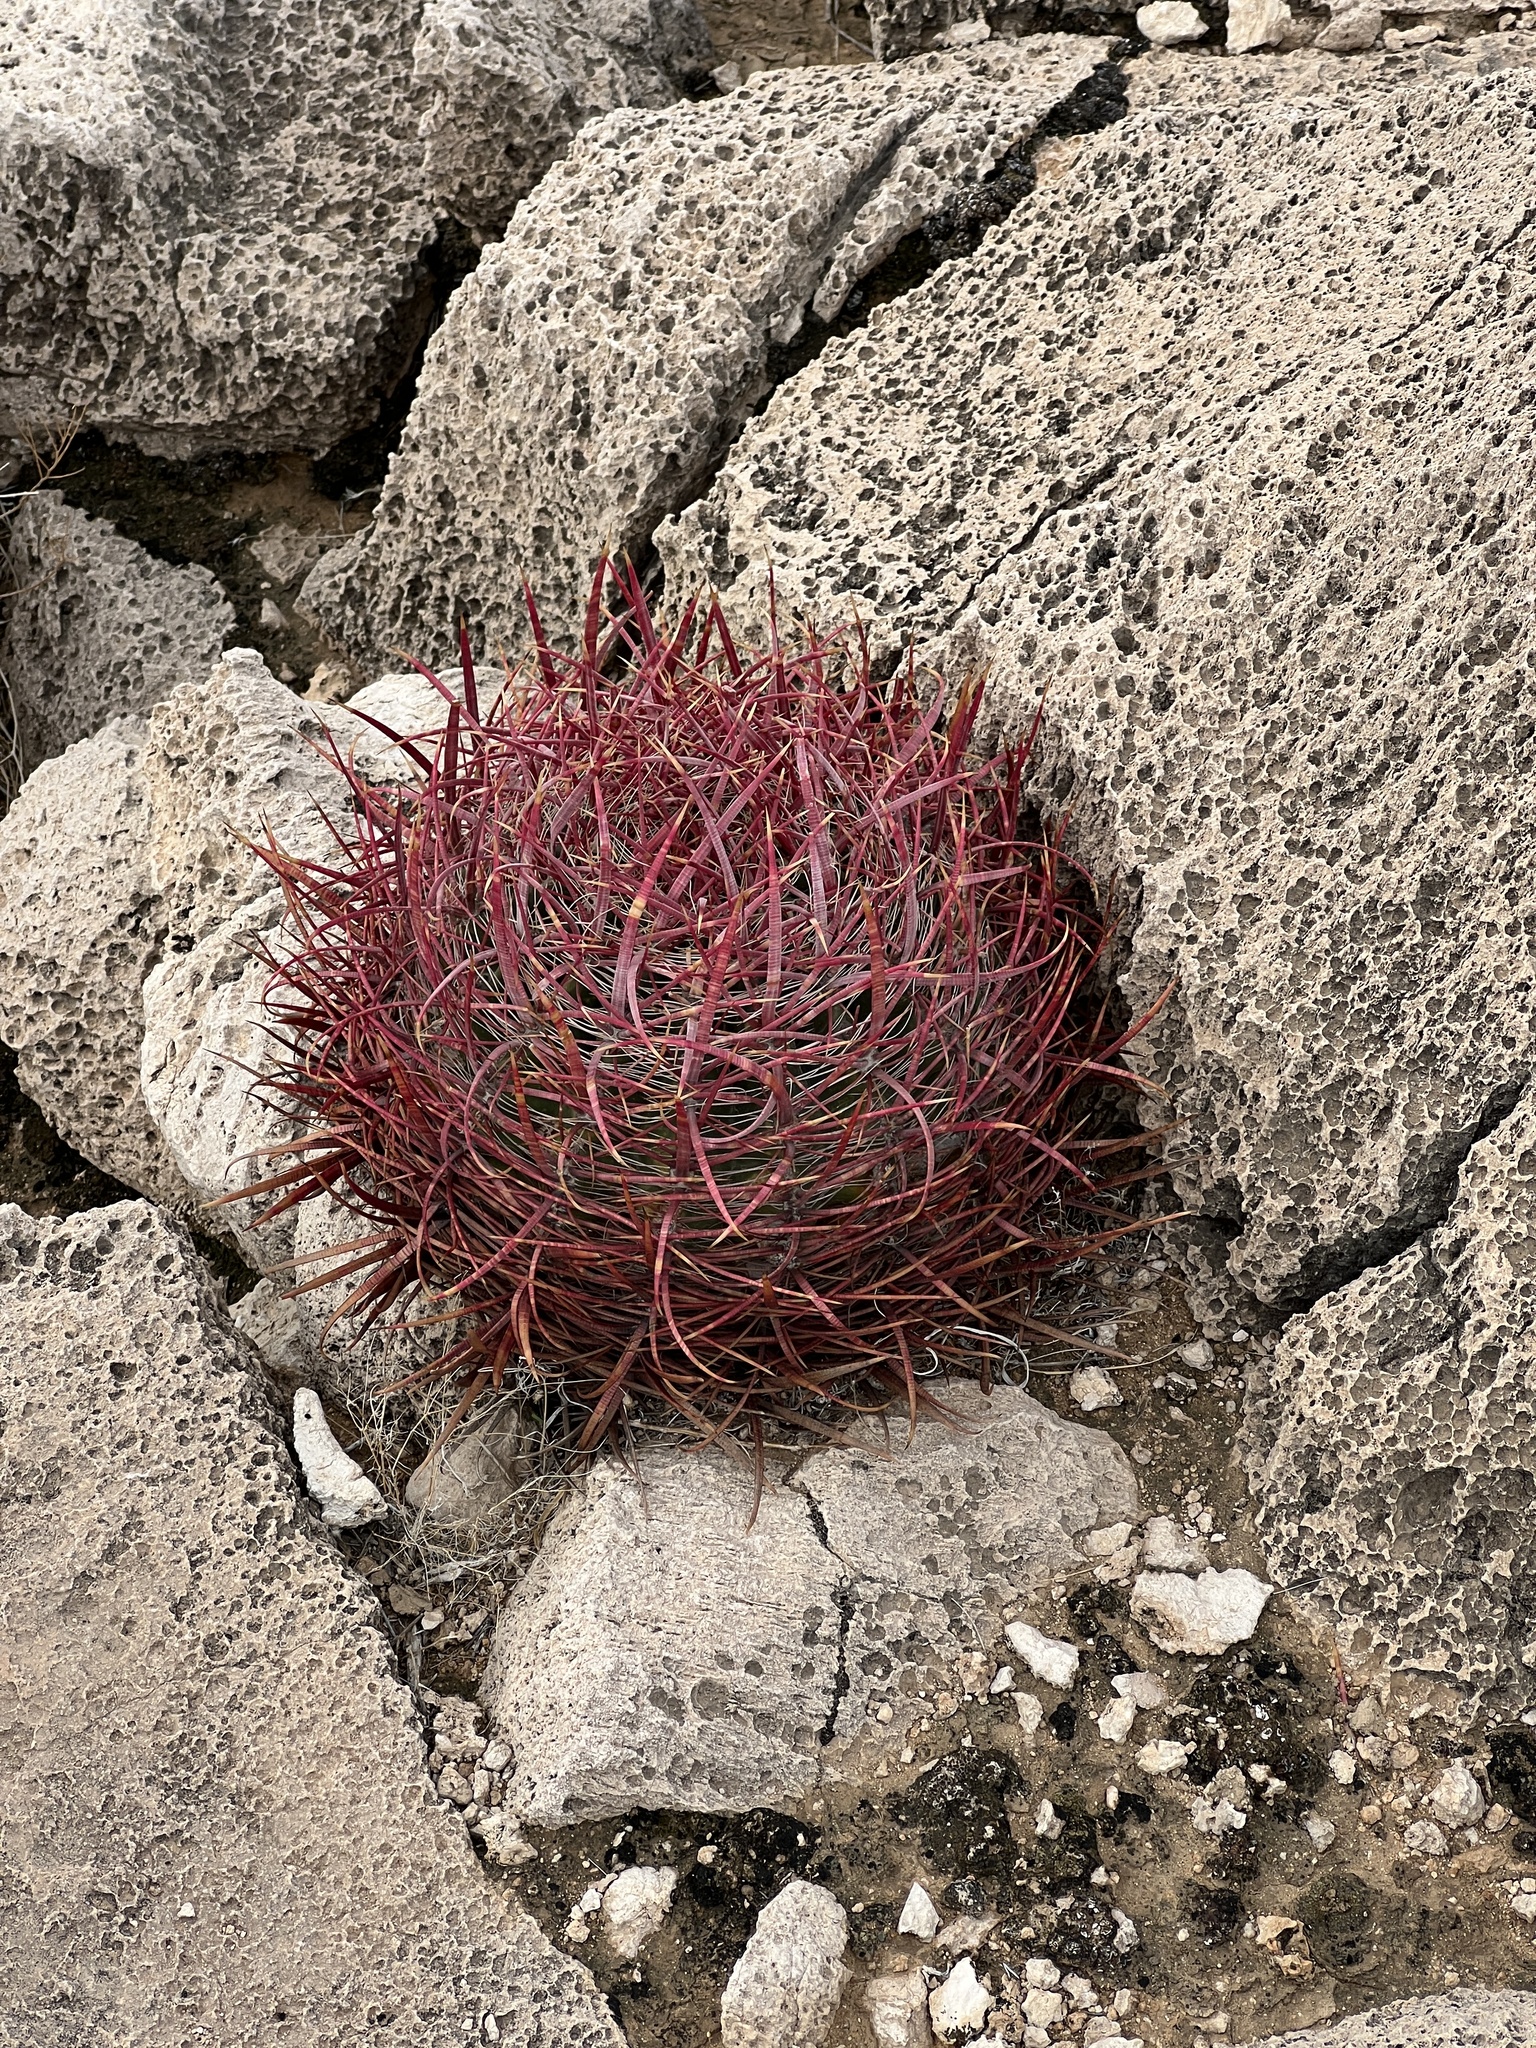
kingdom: Plantae
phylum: Tracheophyta
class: Magnoliopsida
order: Caryophyllales
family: Cactaceae
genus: Ferocactus
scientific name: Ferocactus cylindraceus
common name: California barrel cactus
